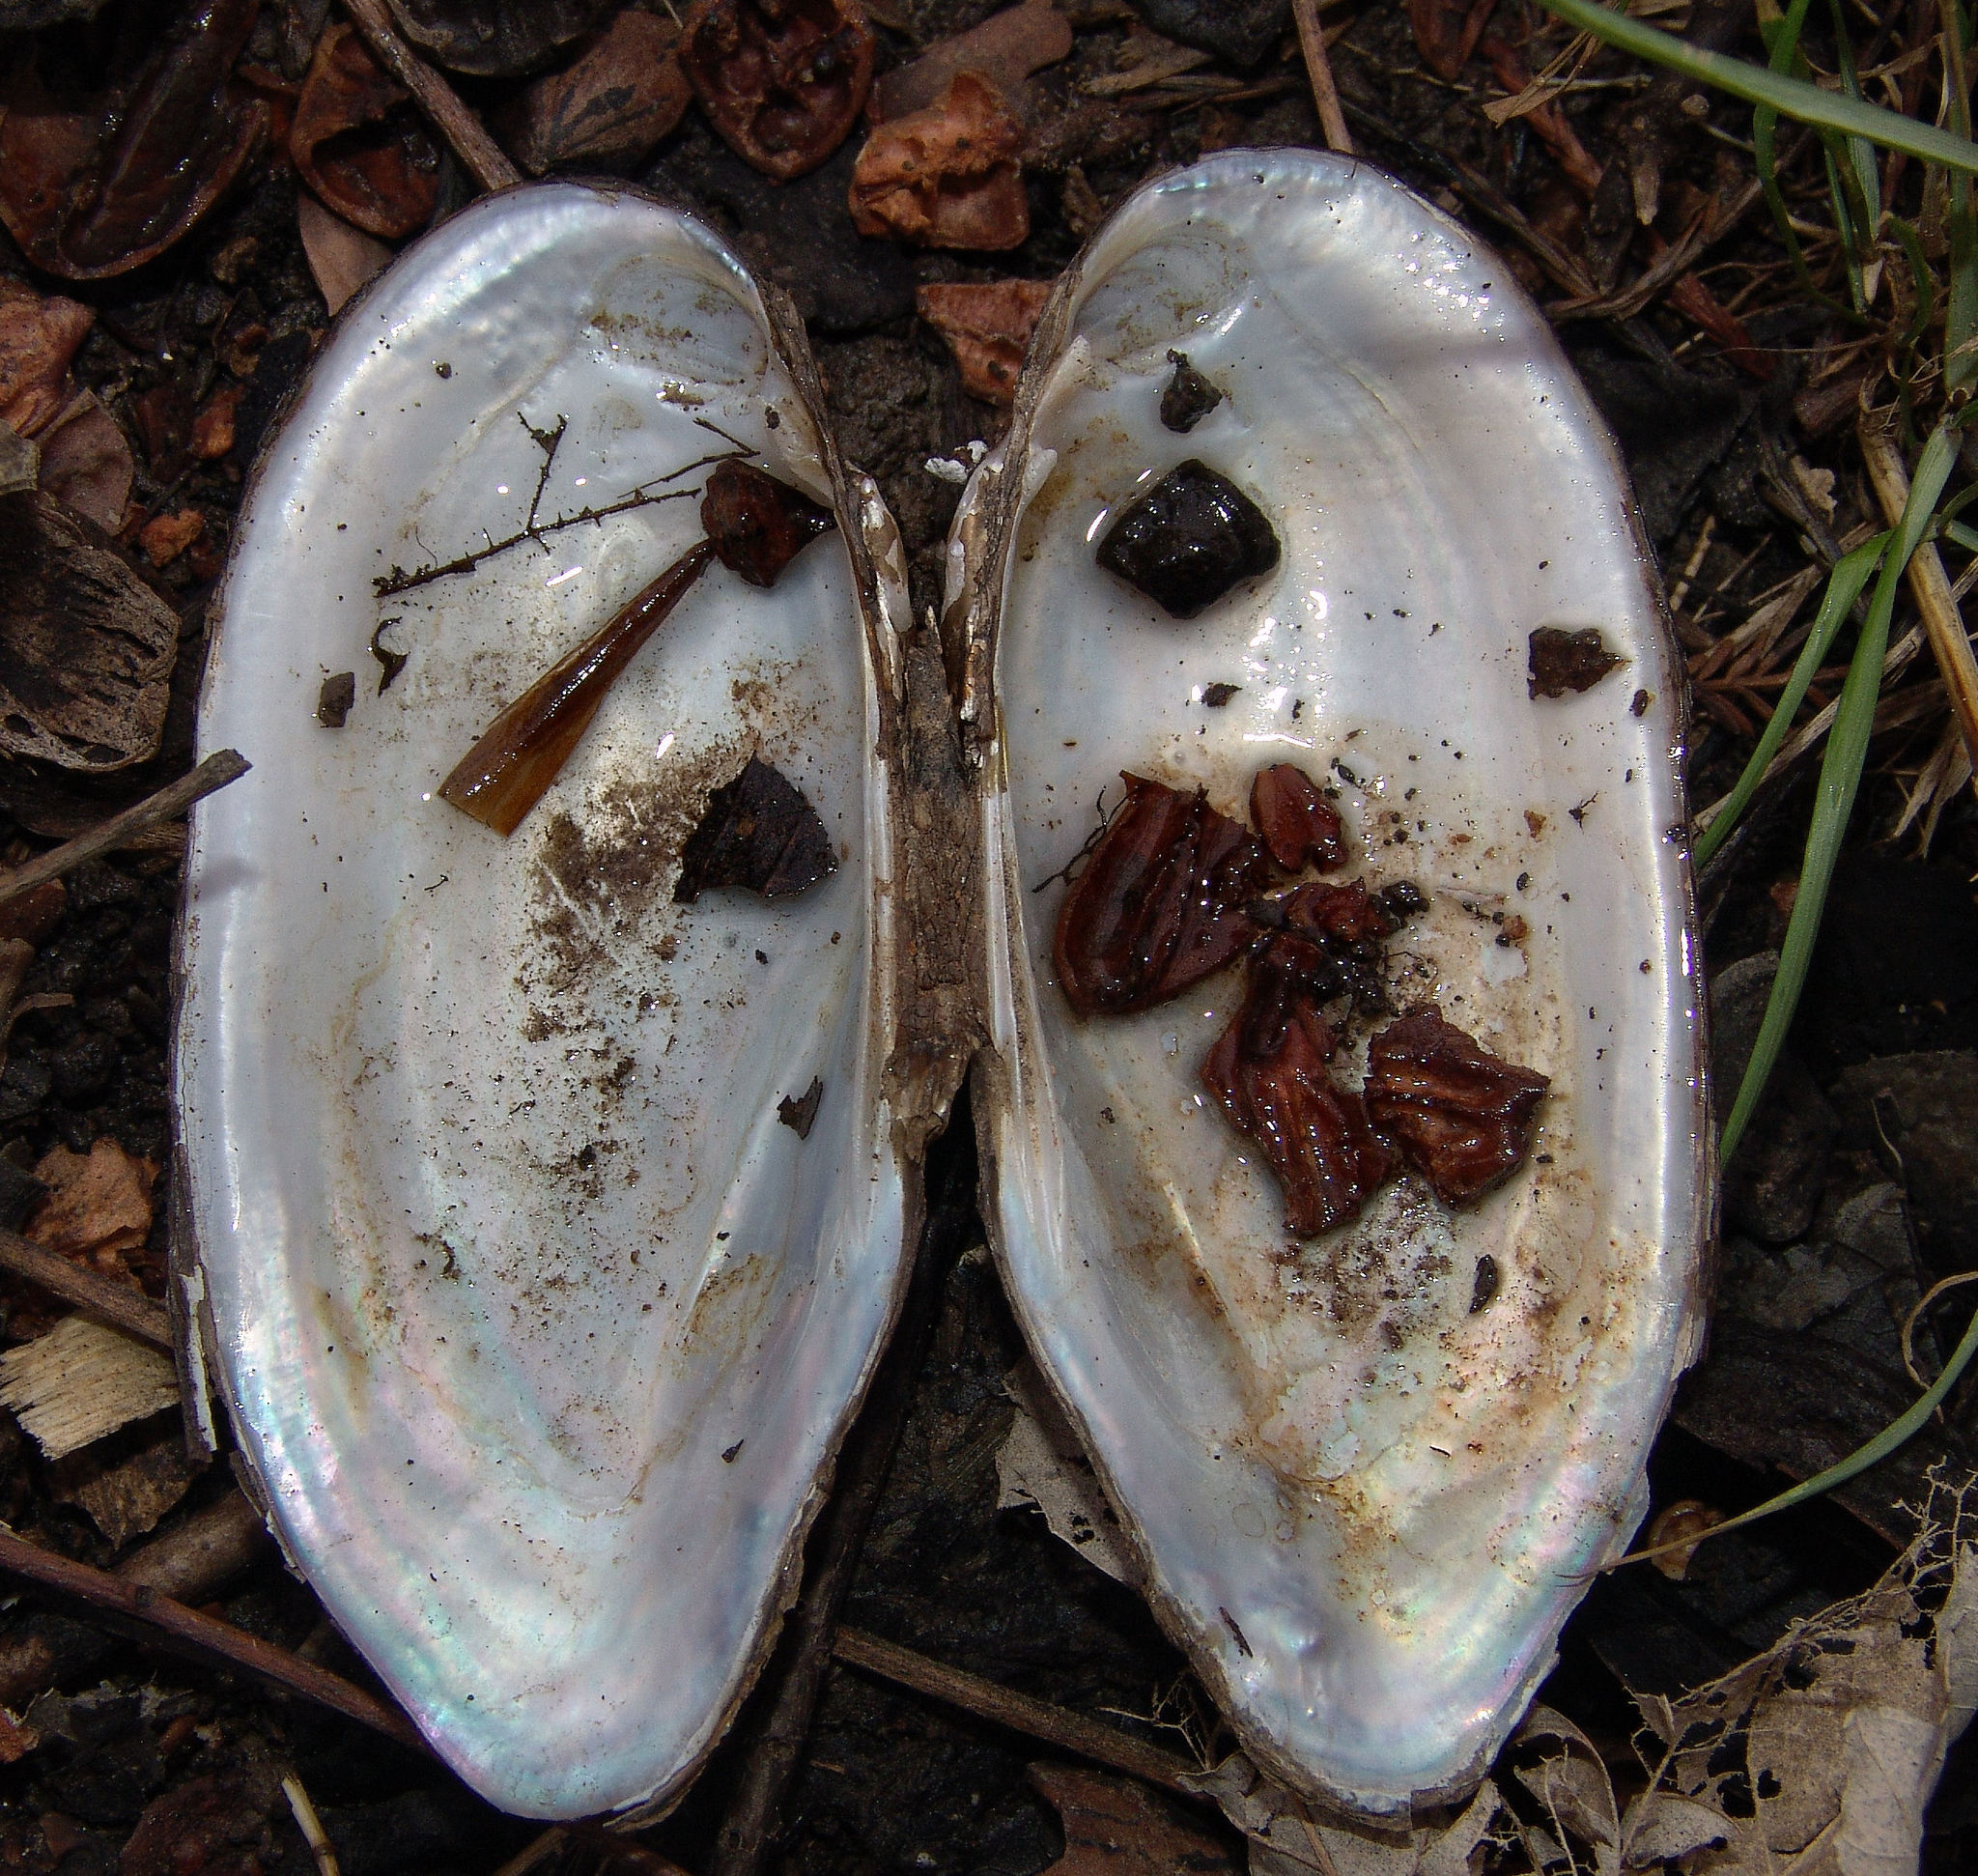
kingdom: Animalia
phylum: Mollusca
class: Bivalvia
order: Unionida
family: Unionidae
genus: Sagittunio
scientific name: Sagittunio subrostratus
